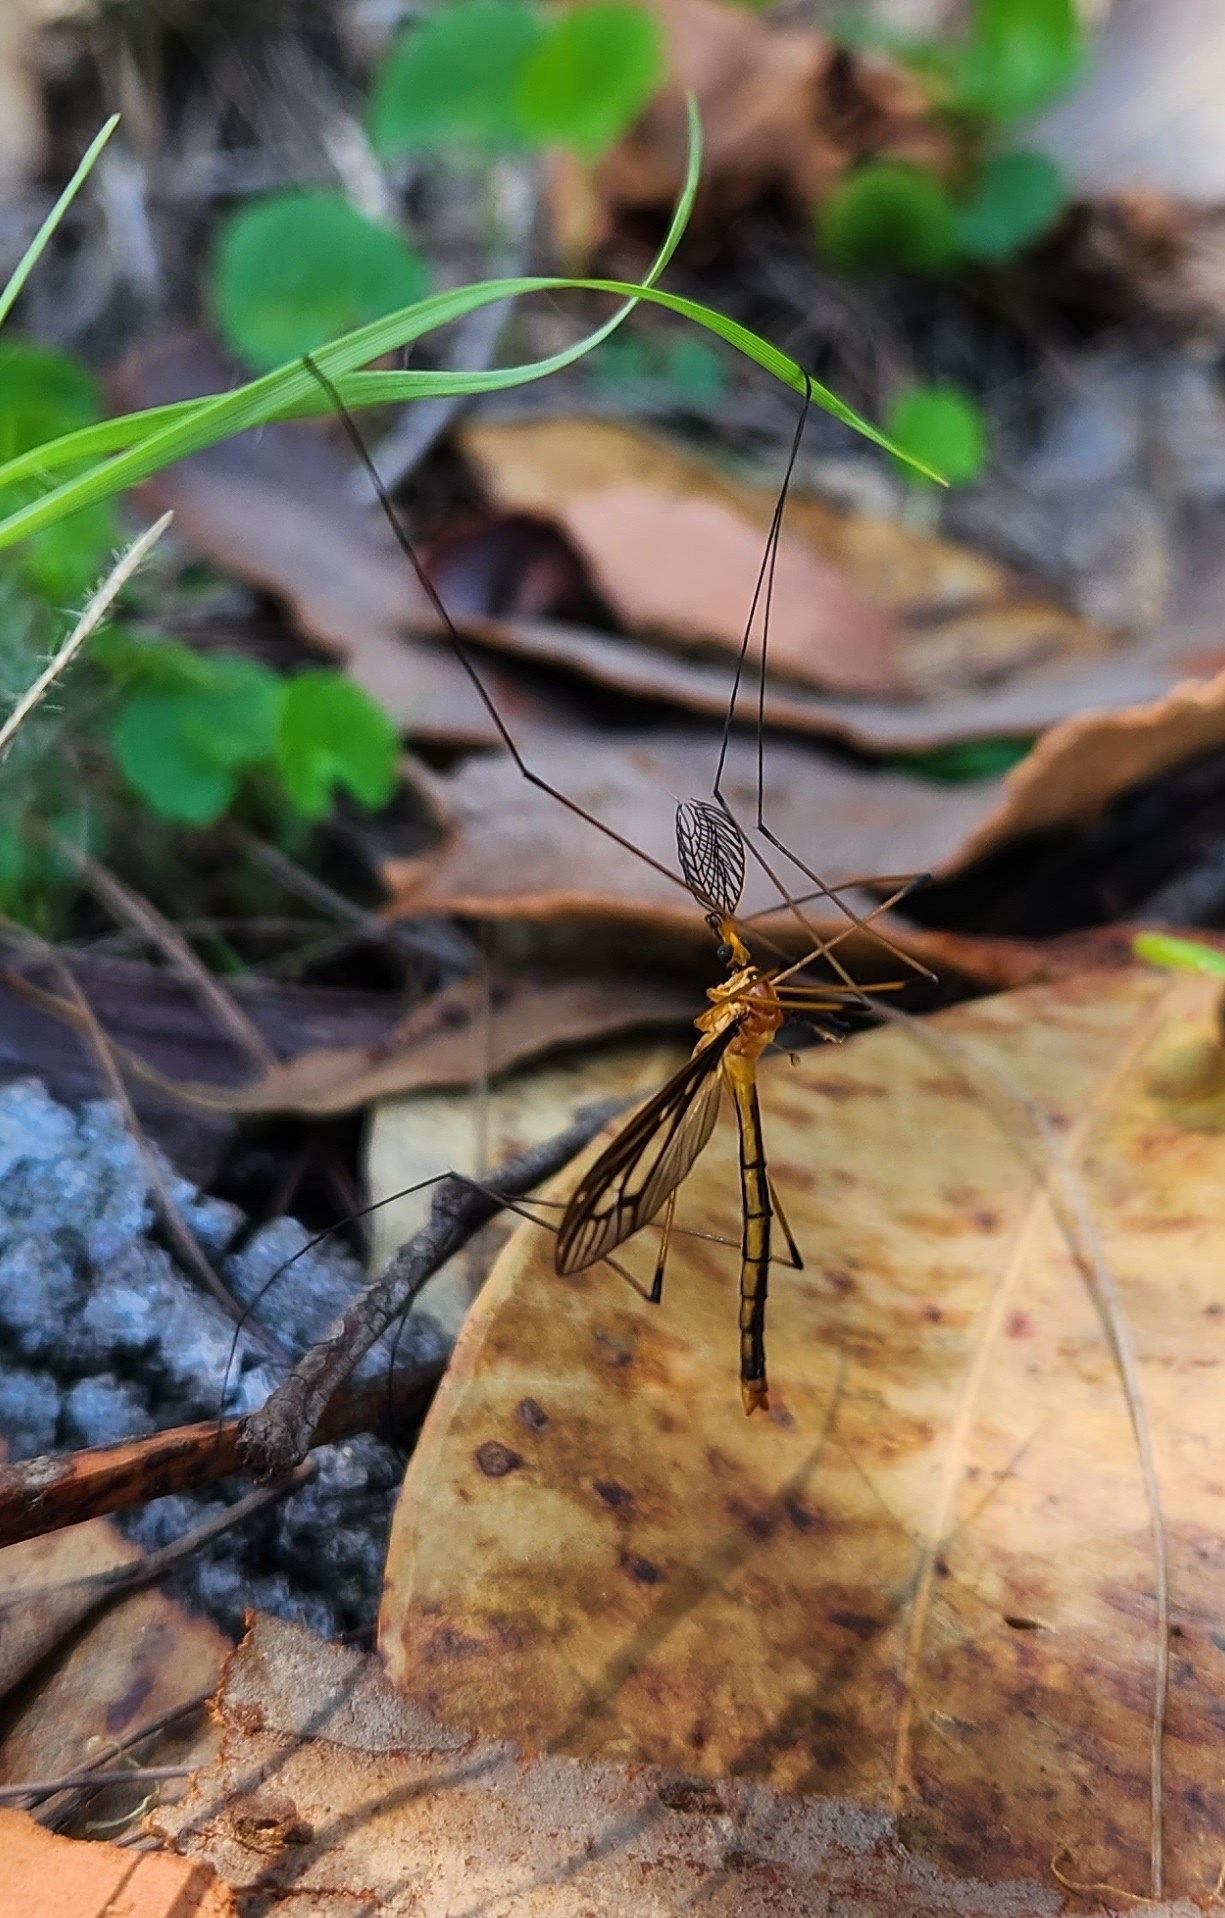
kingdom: Animalia
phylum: Arthropoda
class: Insecta
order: Diptera
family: Tipulidae
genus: Ptilogyna
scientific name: Ptilogyna ramicornis
